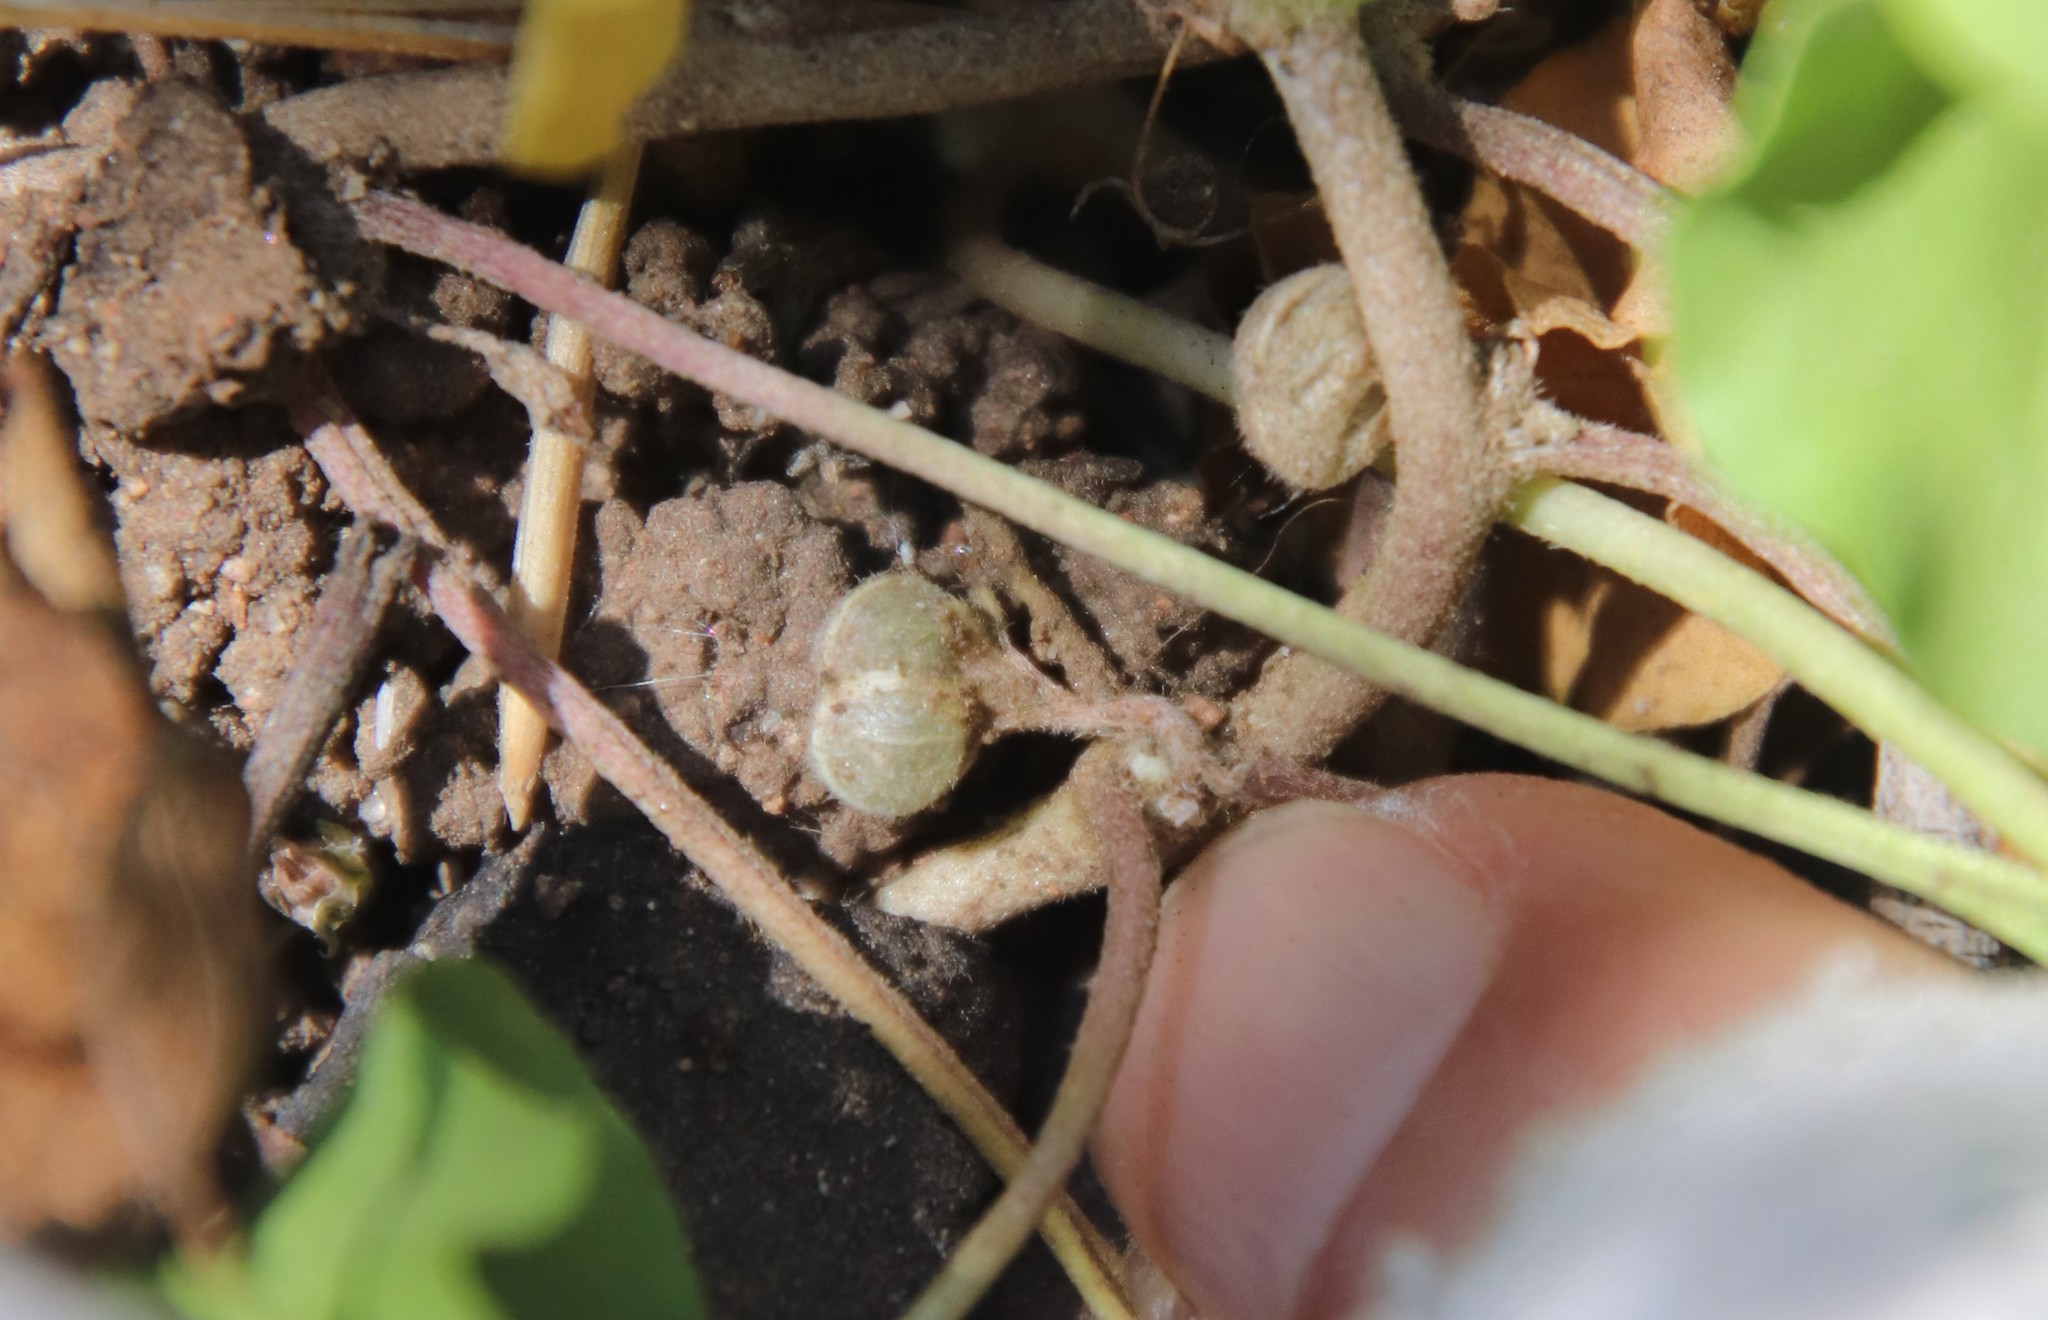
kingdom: Plantae
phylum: Tracheophyta
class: Magnoliopsida
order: Solanales
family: Convolvulaceae
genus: Dichondra
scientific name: Dichondra occidentalis
